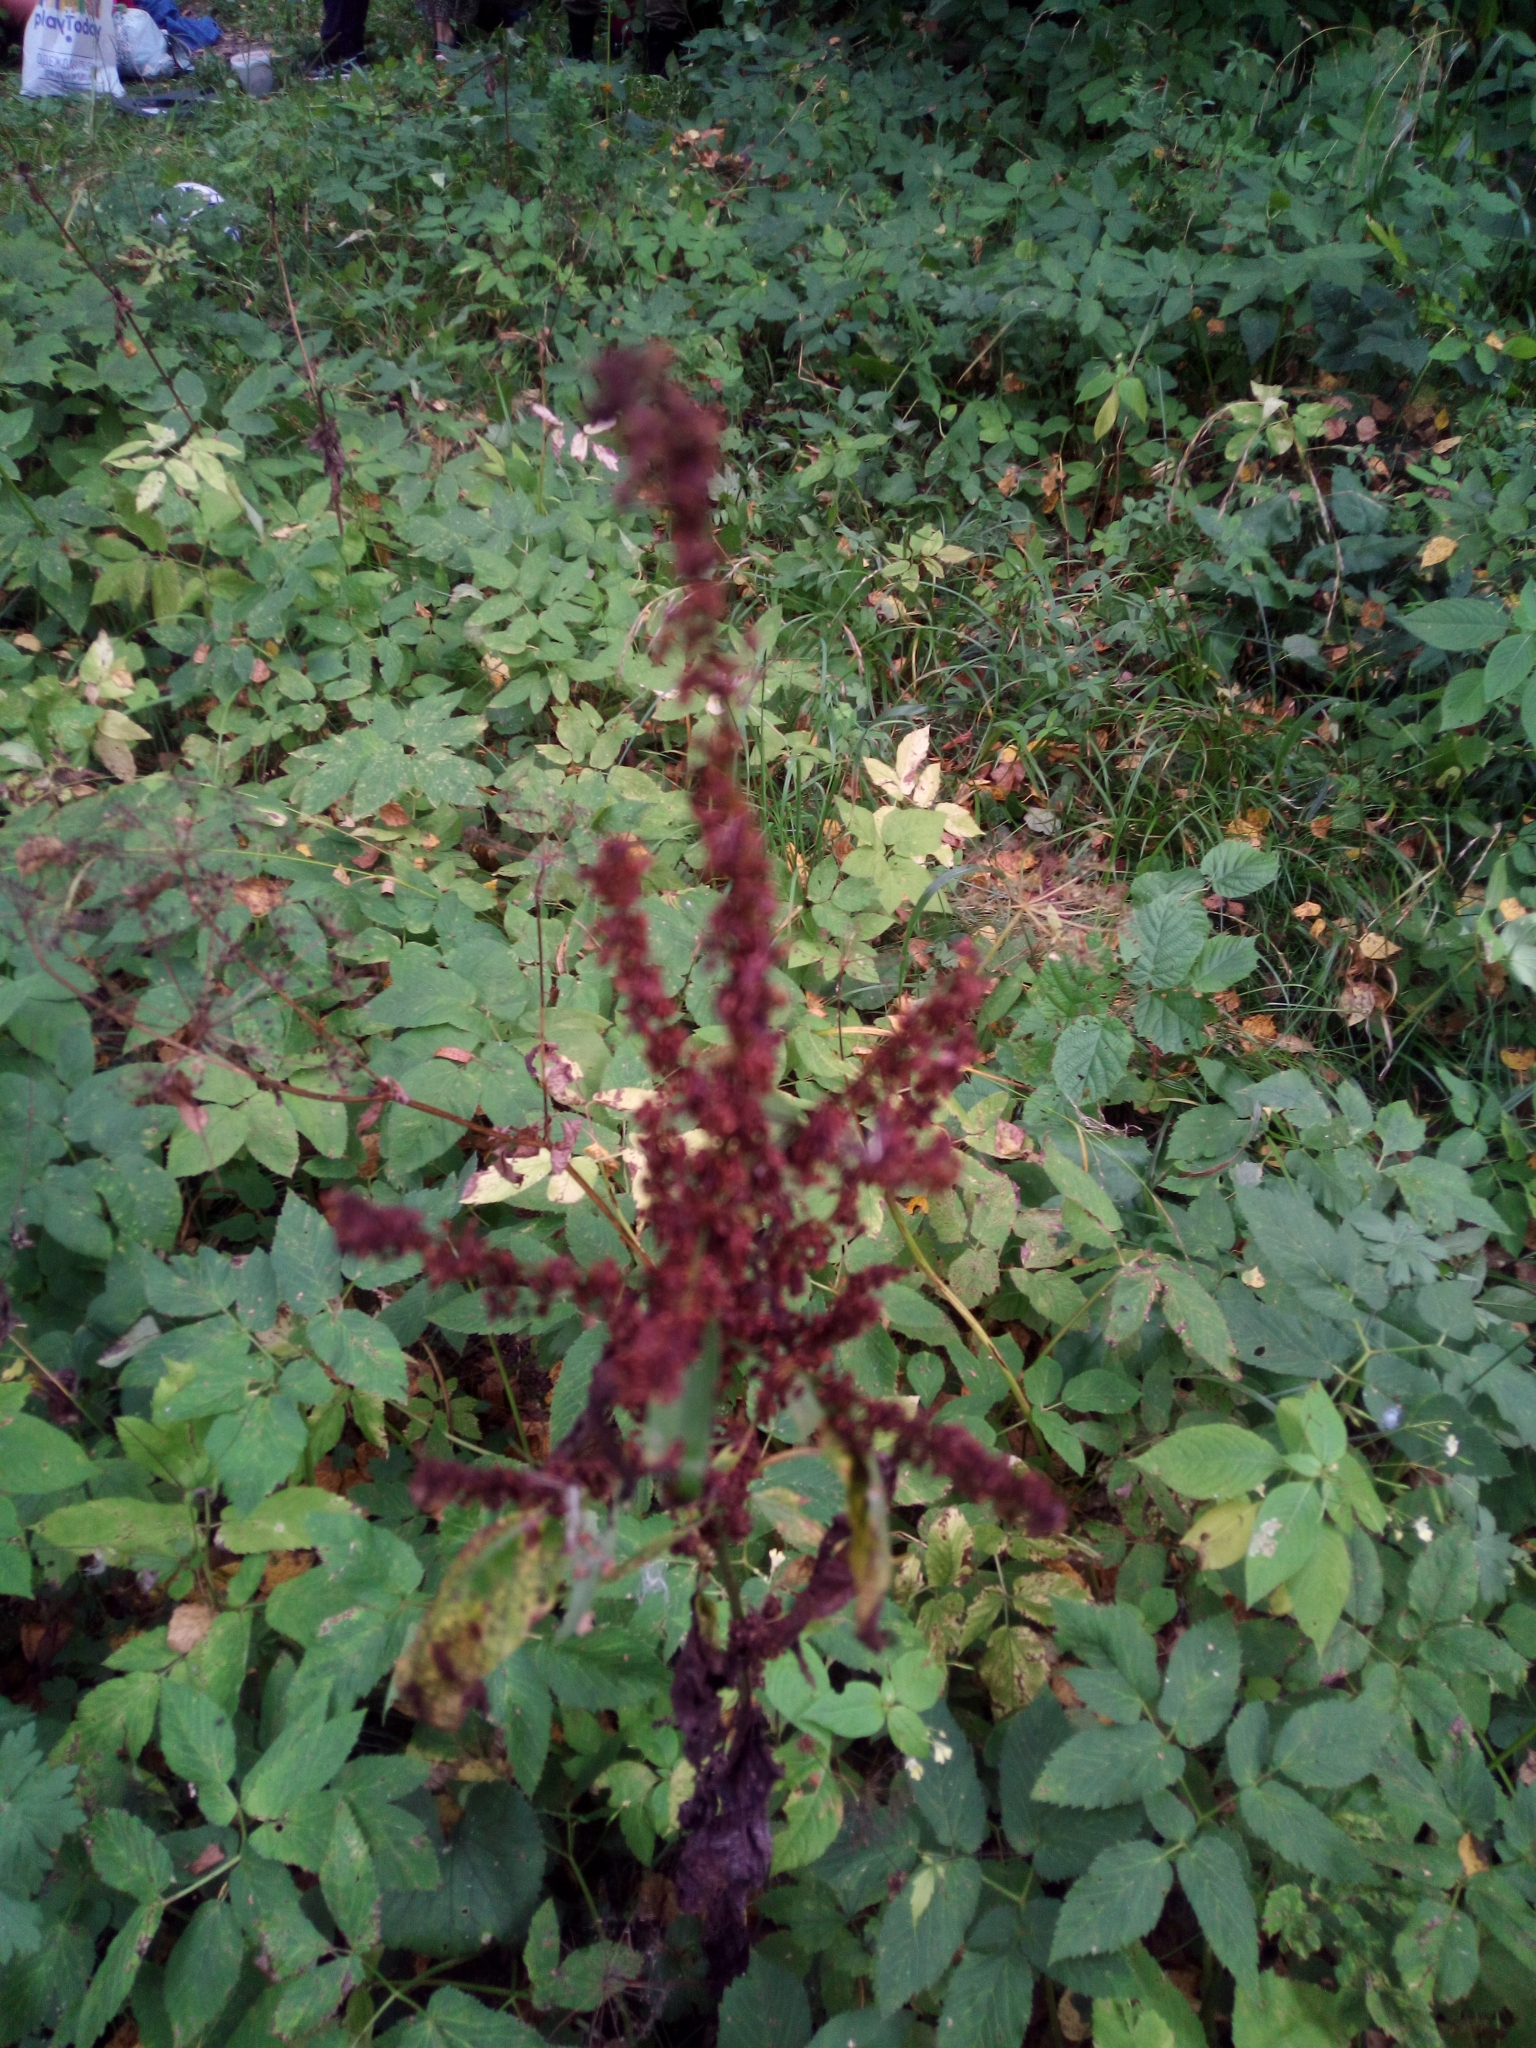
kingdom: Plantae
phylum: Tracheophyta
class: Magnoliopsida
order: Caryophyllales
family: Polygonaceae
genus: Rumex
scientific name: Rumex obtusifolius
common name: Bitter dock
